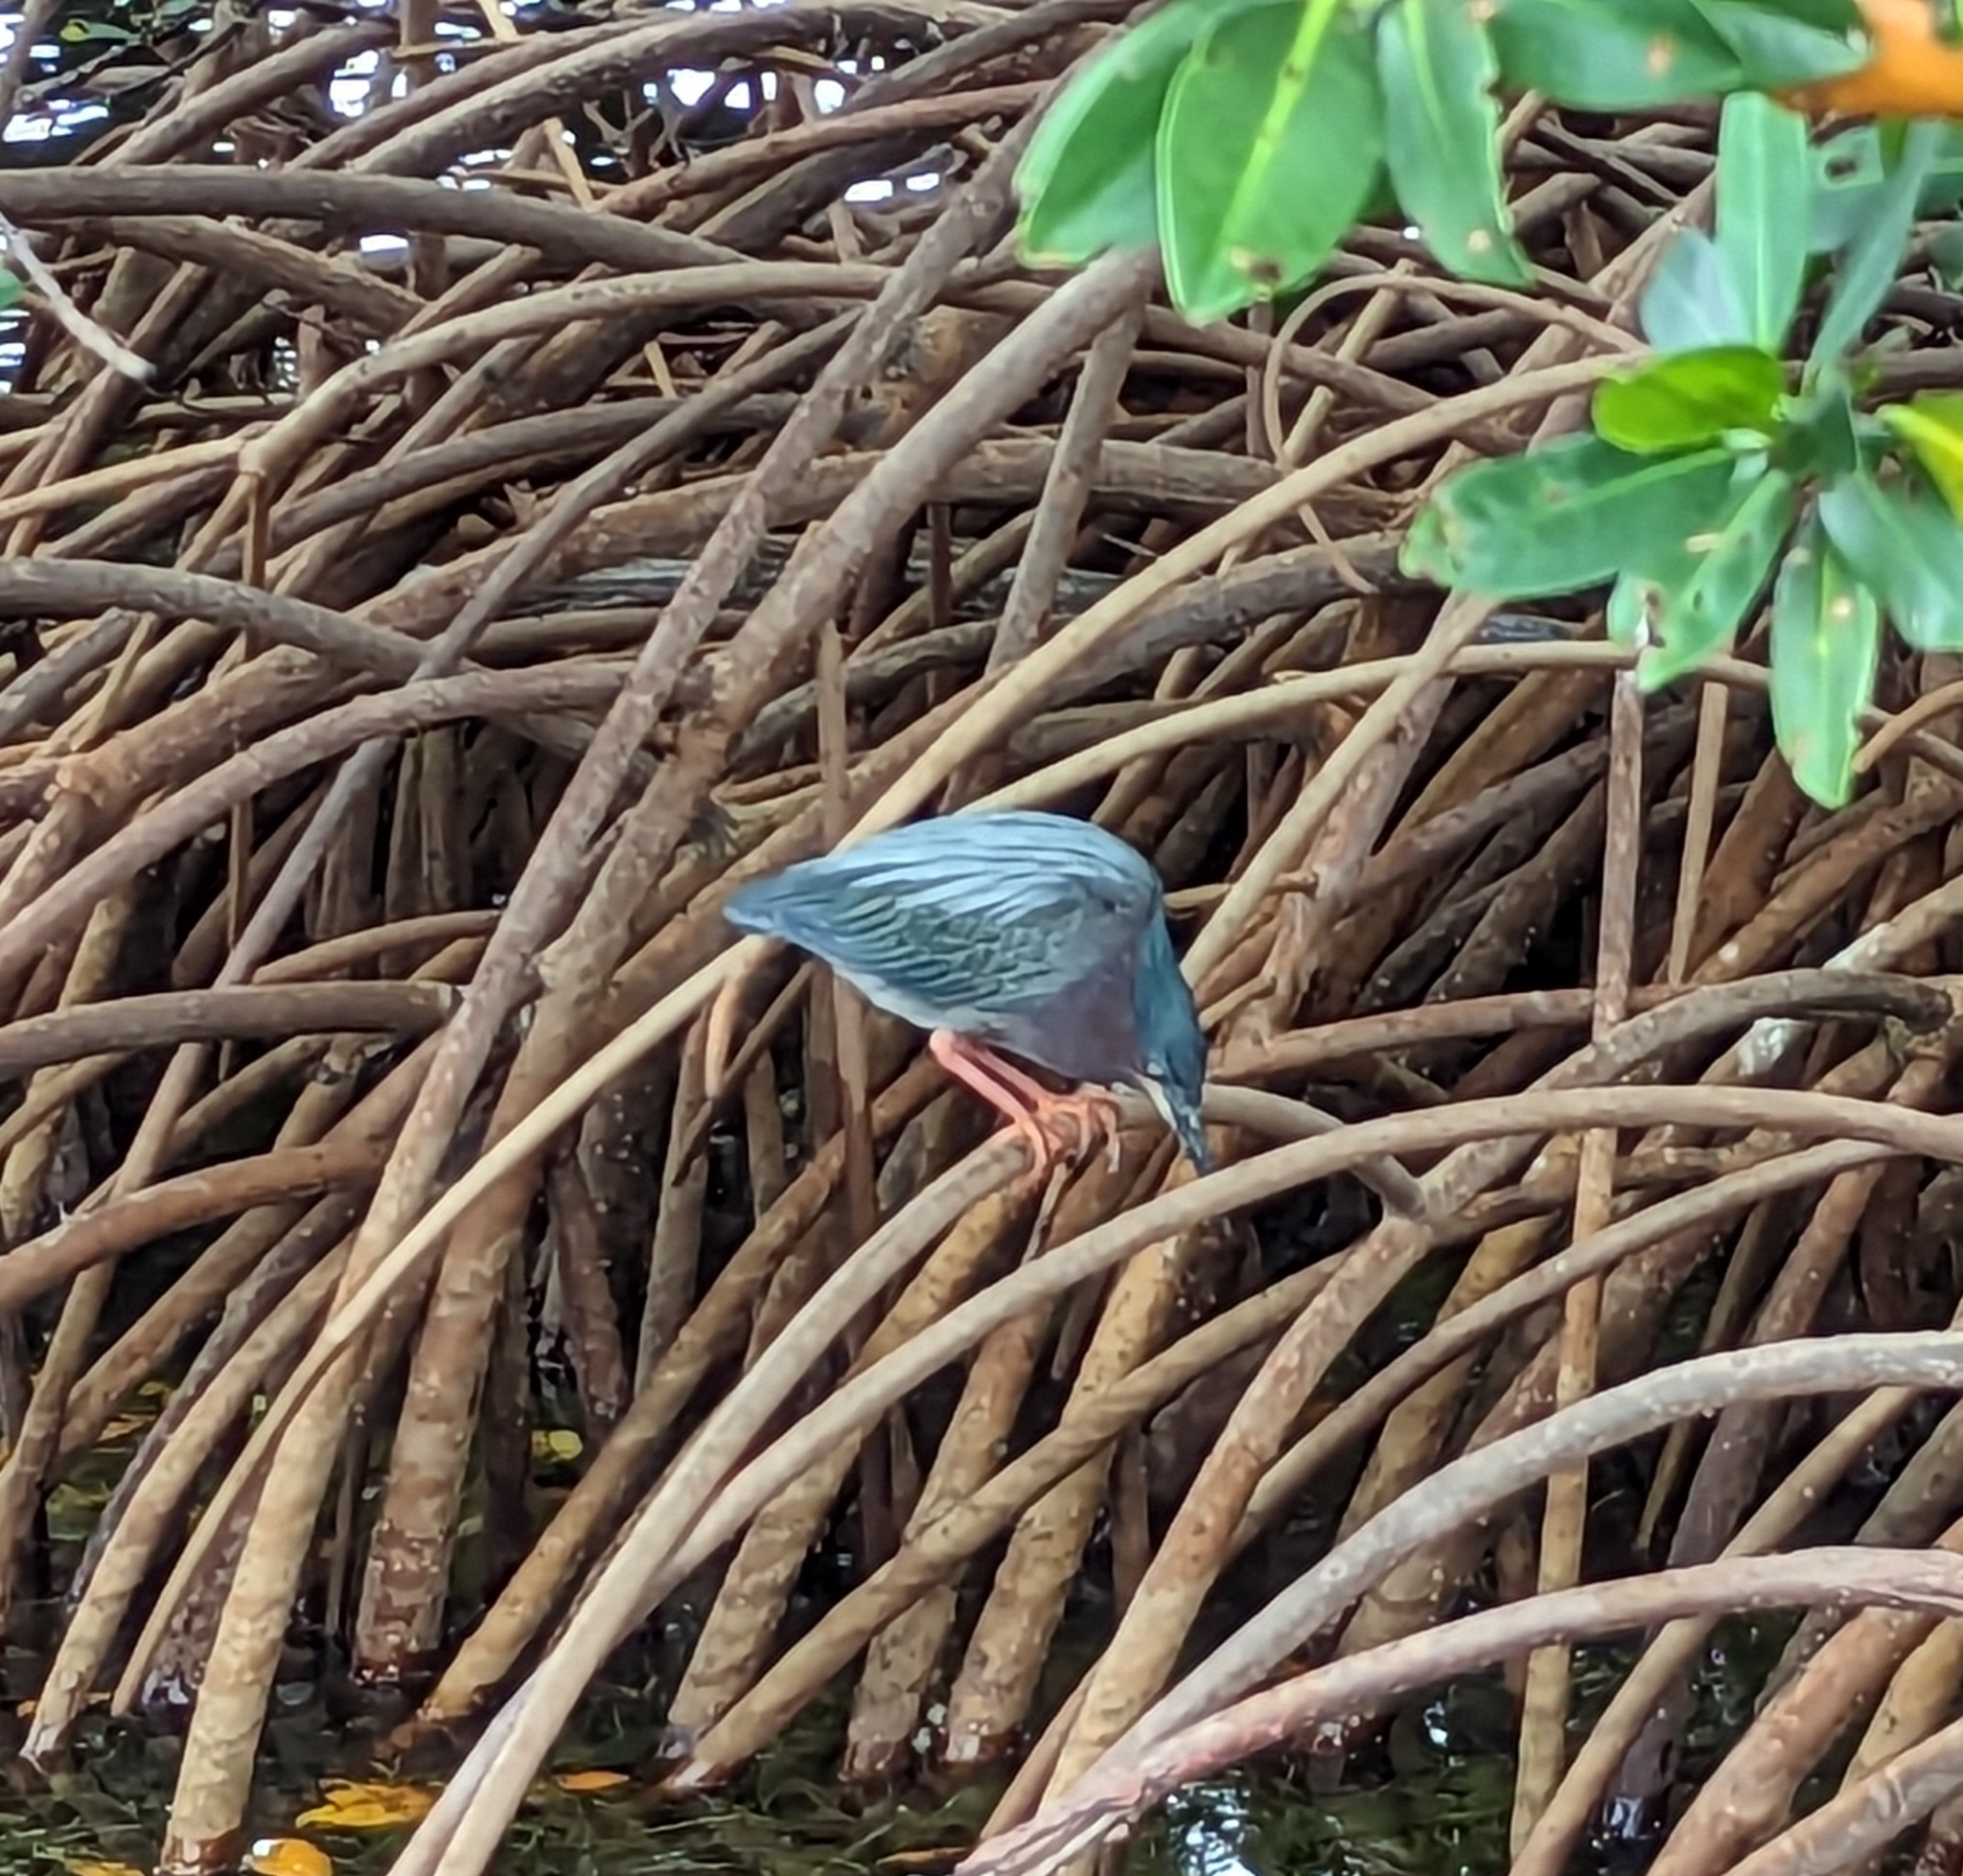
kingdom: Animalia
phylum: Chordata
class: Aves
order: Pelecaniformes
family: Ardeidae
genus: Butorides
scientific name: Butorides virescens
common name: Green heron
